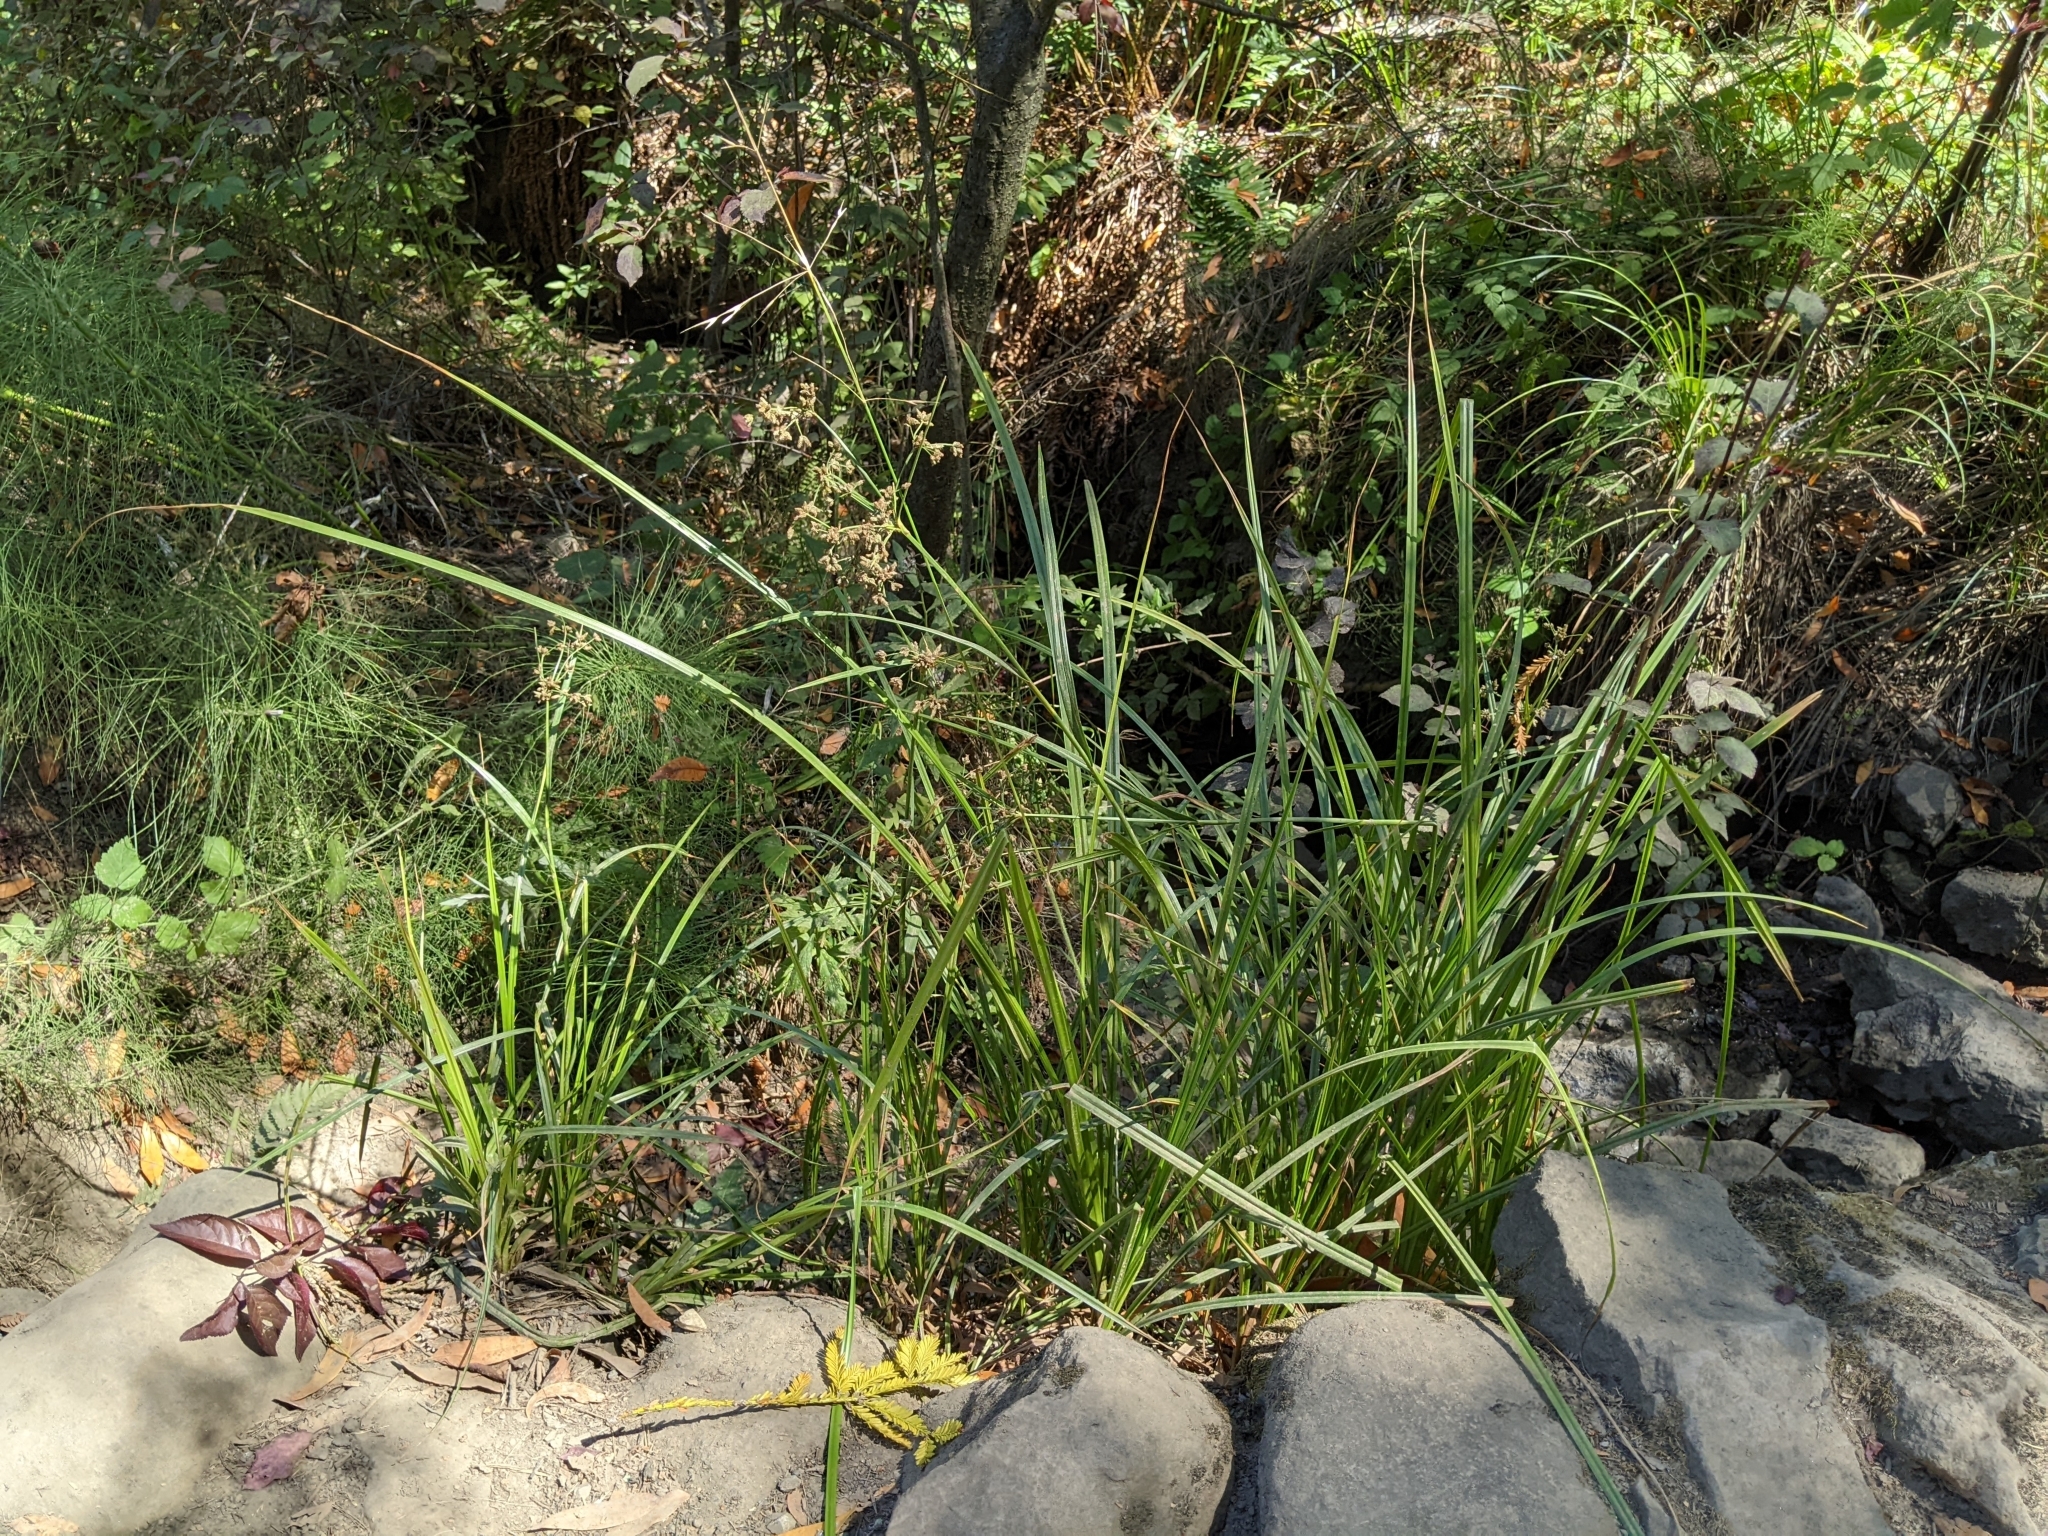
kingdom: Plantae
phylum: Tracheophyta
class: Liliopsida
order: Poales
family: Cyperaceae
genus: Scirpus
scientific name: Scirpus microcarpus
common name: Panicled bulrush
